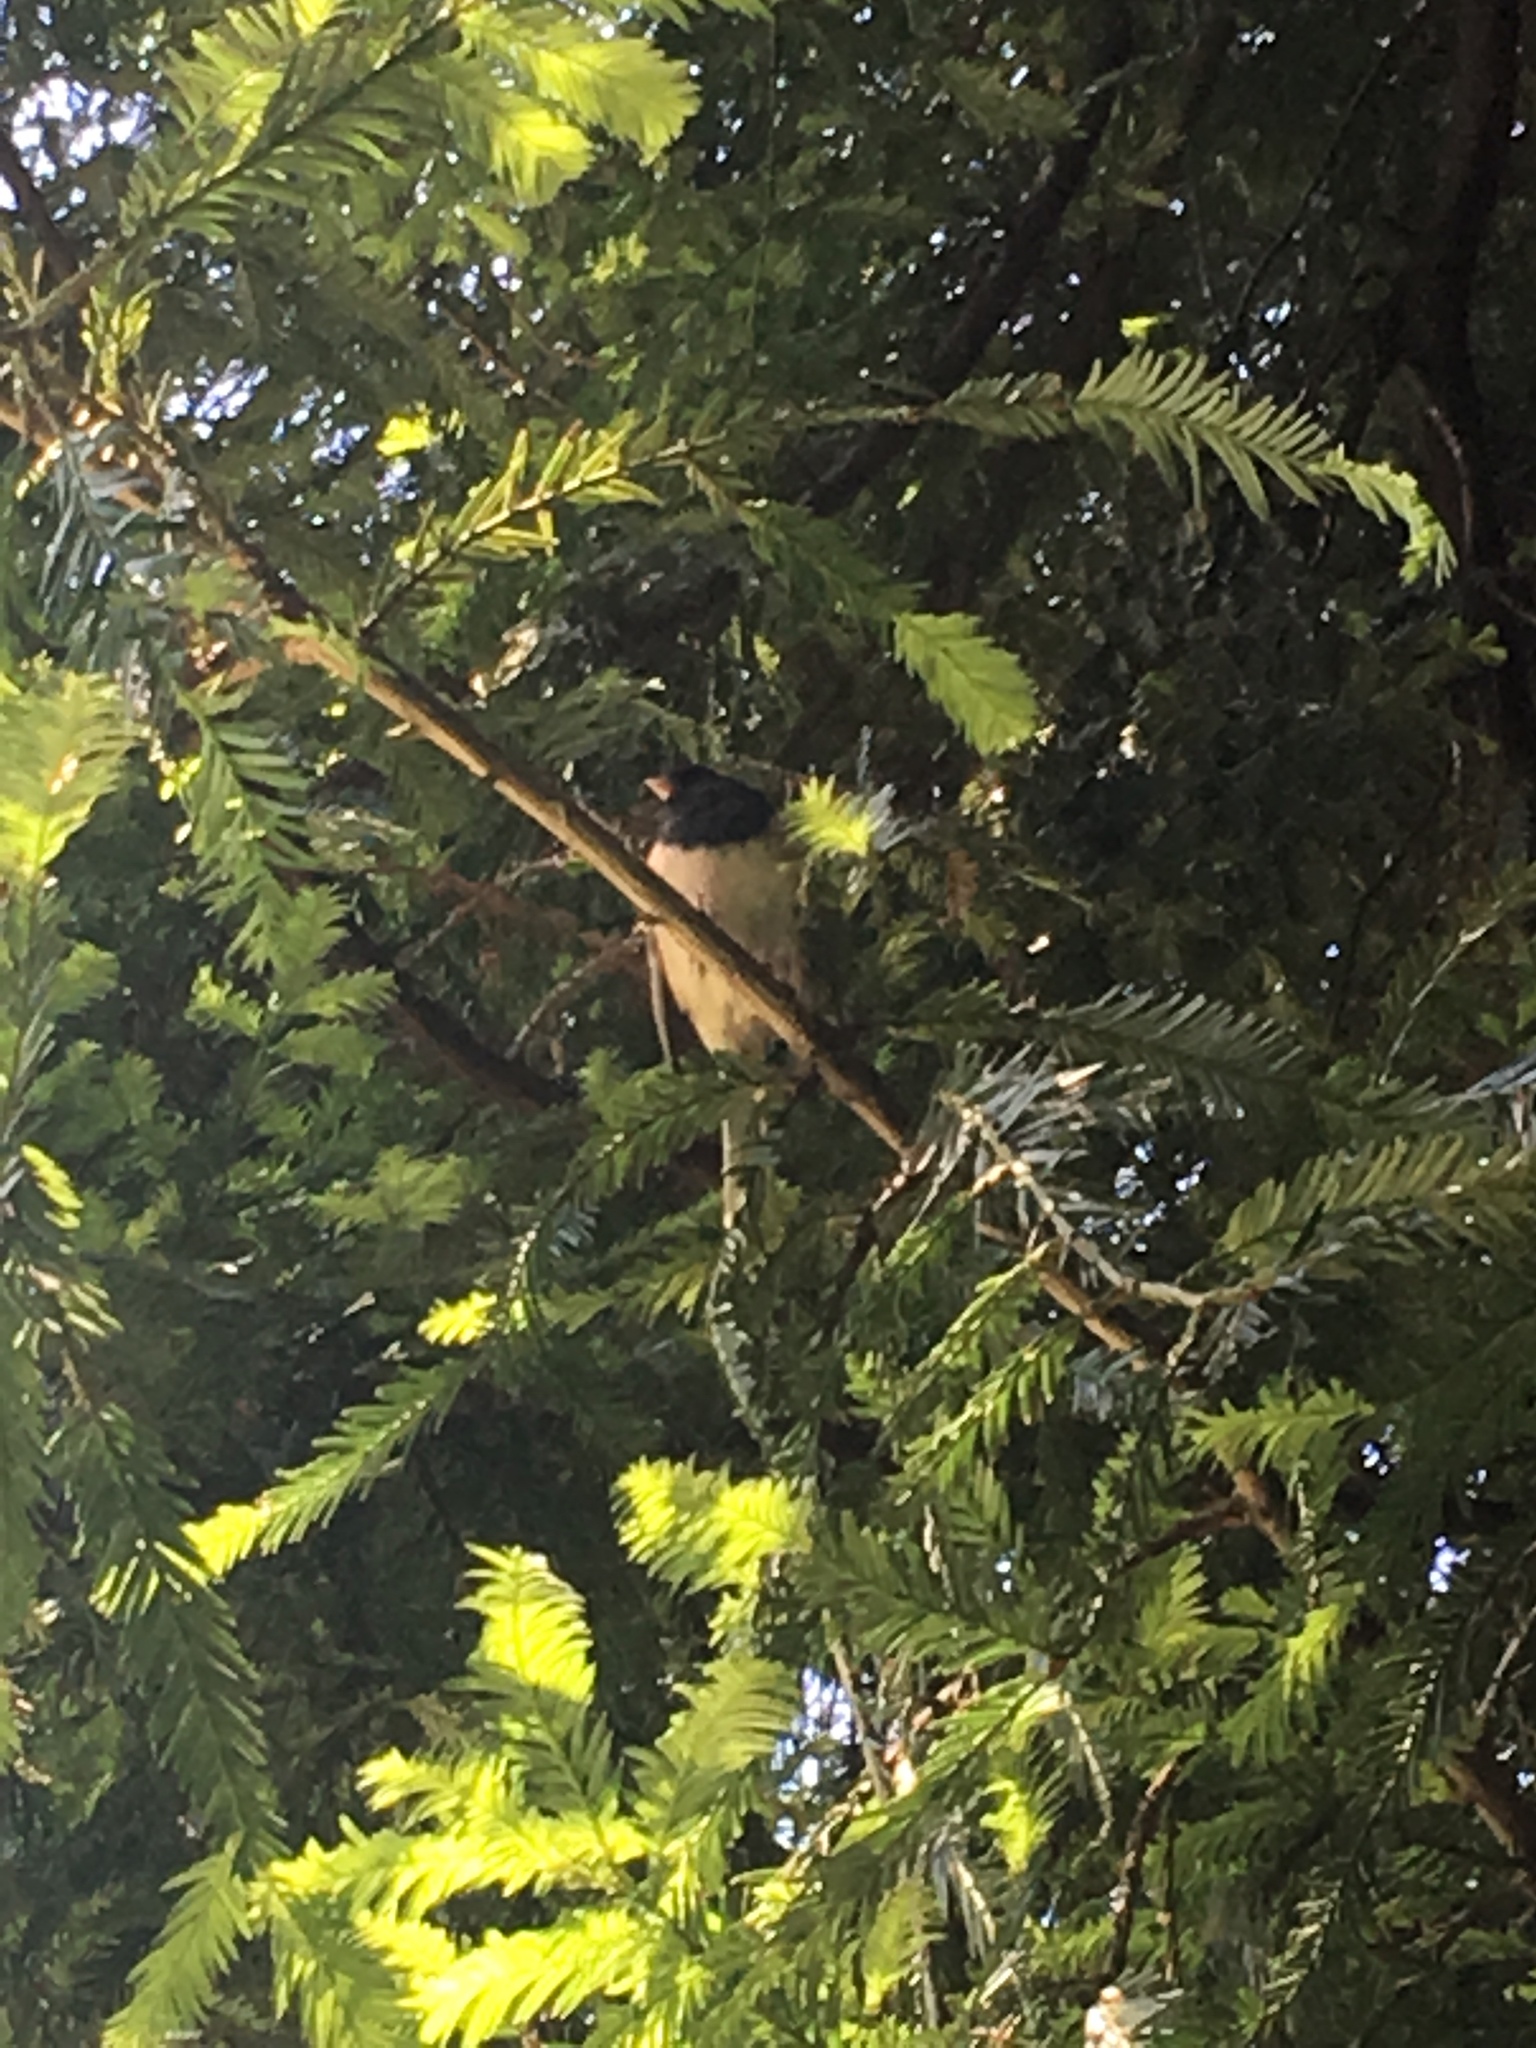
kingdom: Animalia
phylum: Chordata
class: Aves
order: Passeriformes
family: Passerellidae
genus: Junco
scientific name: Junco hyemalis
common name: Dark-eyed junco
